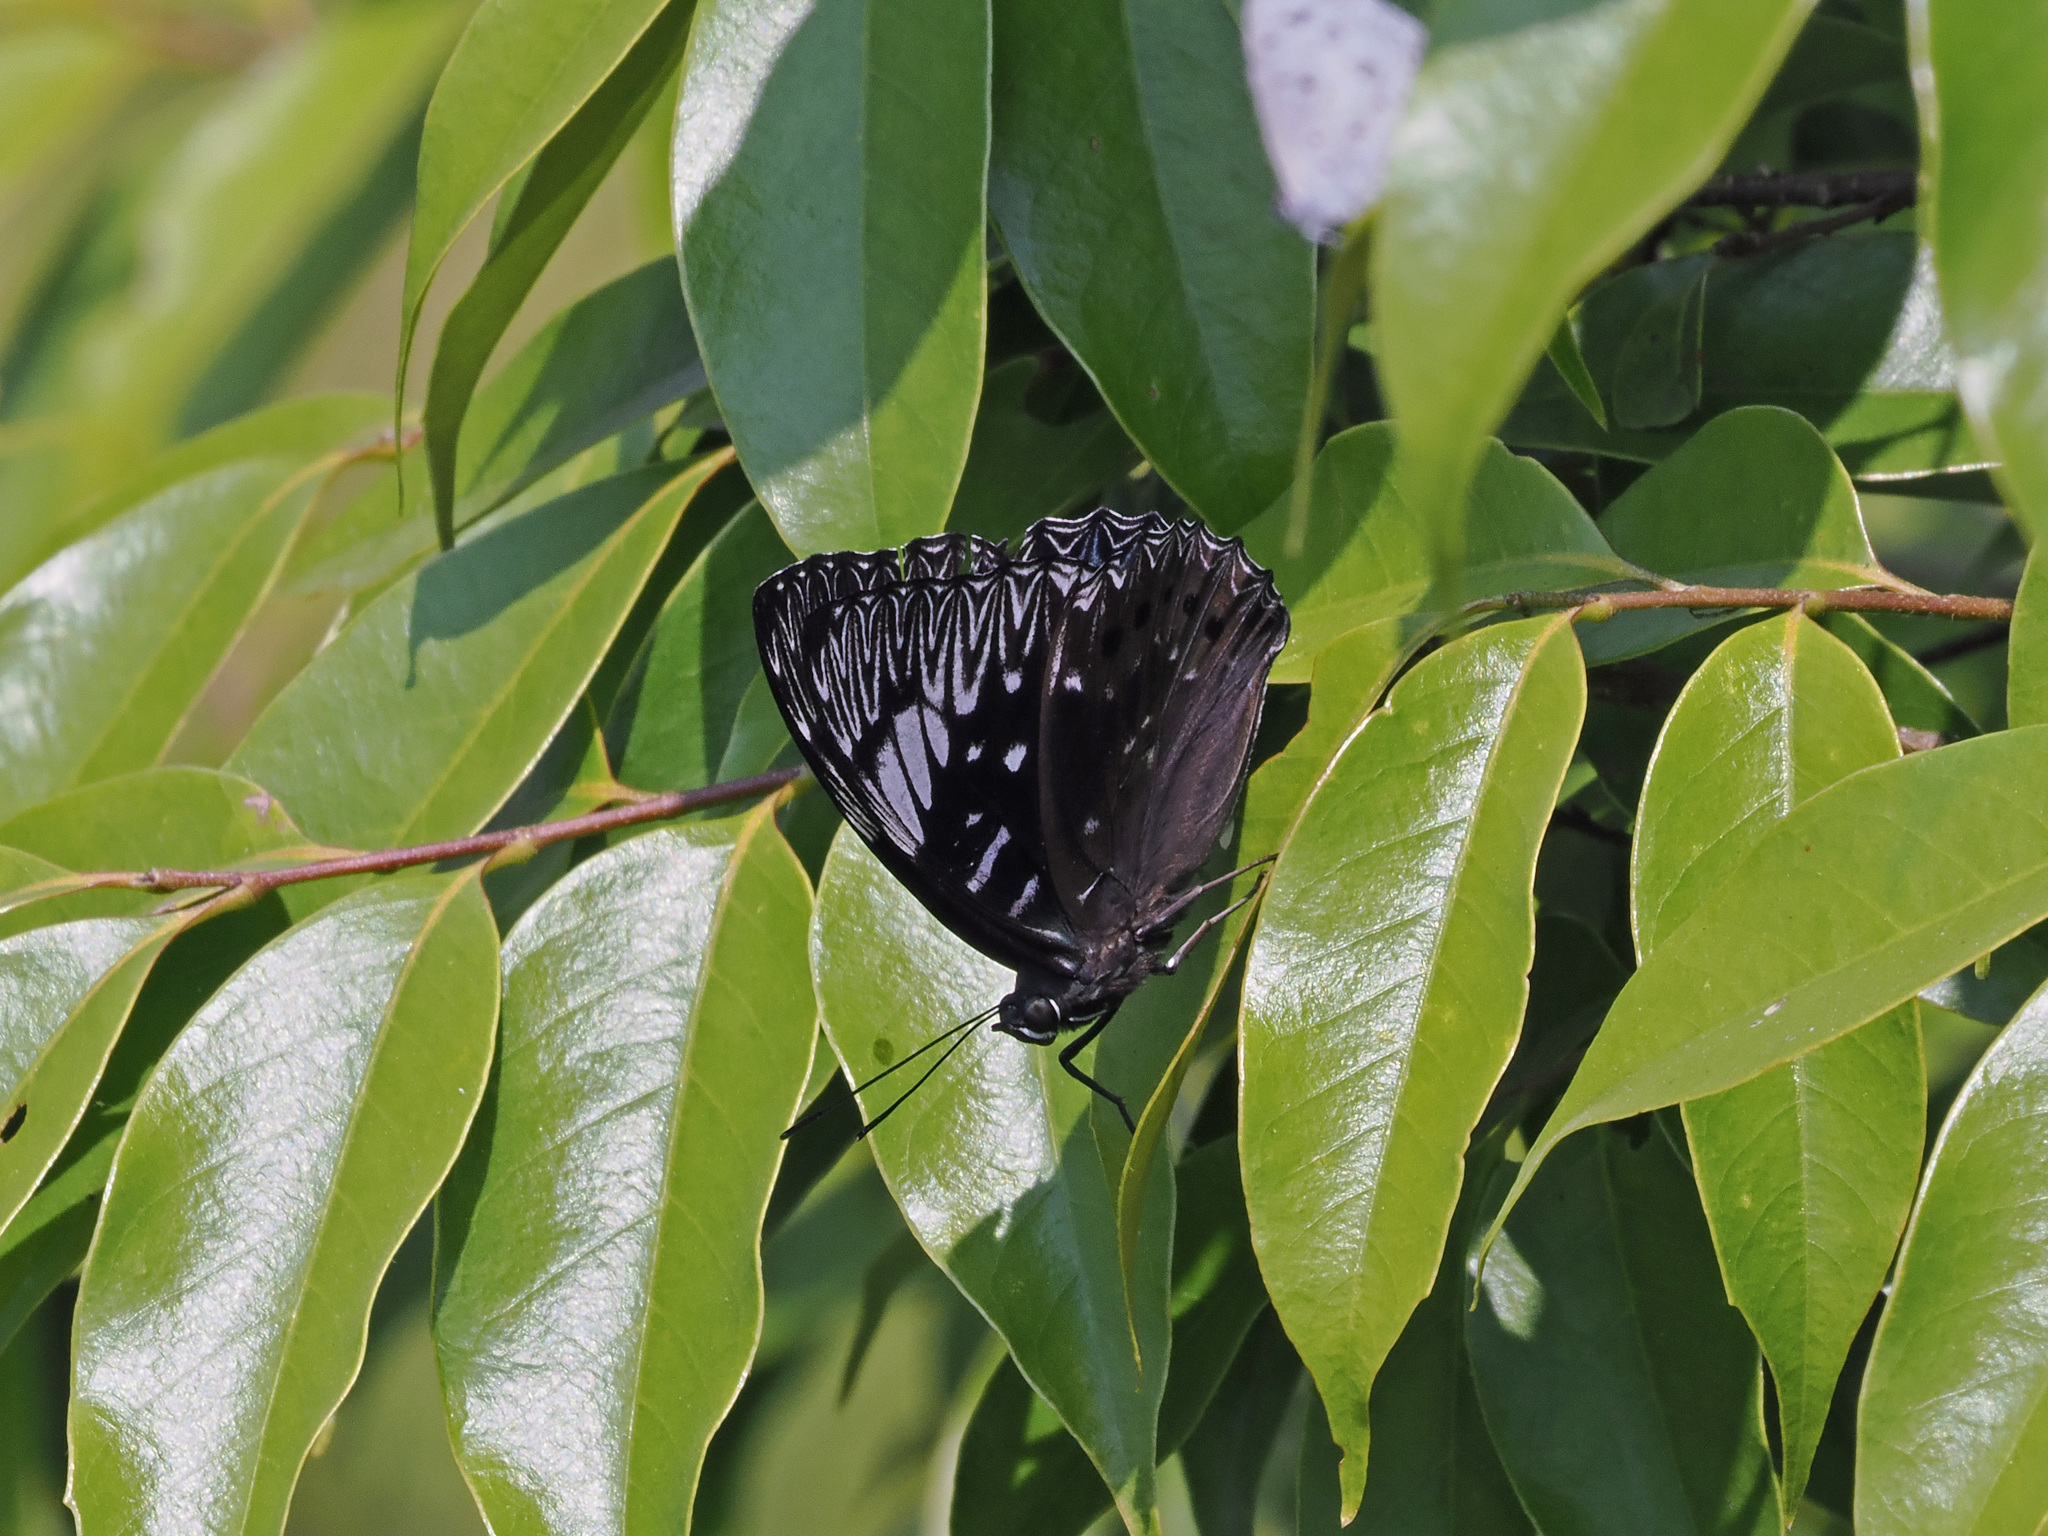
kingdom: Animalia
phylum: Arthropoda
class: Insecta
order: Lepidoptera
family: Nymphalidae
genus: Dichorragia
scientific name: Dichorragia nesimachus
